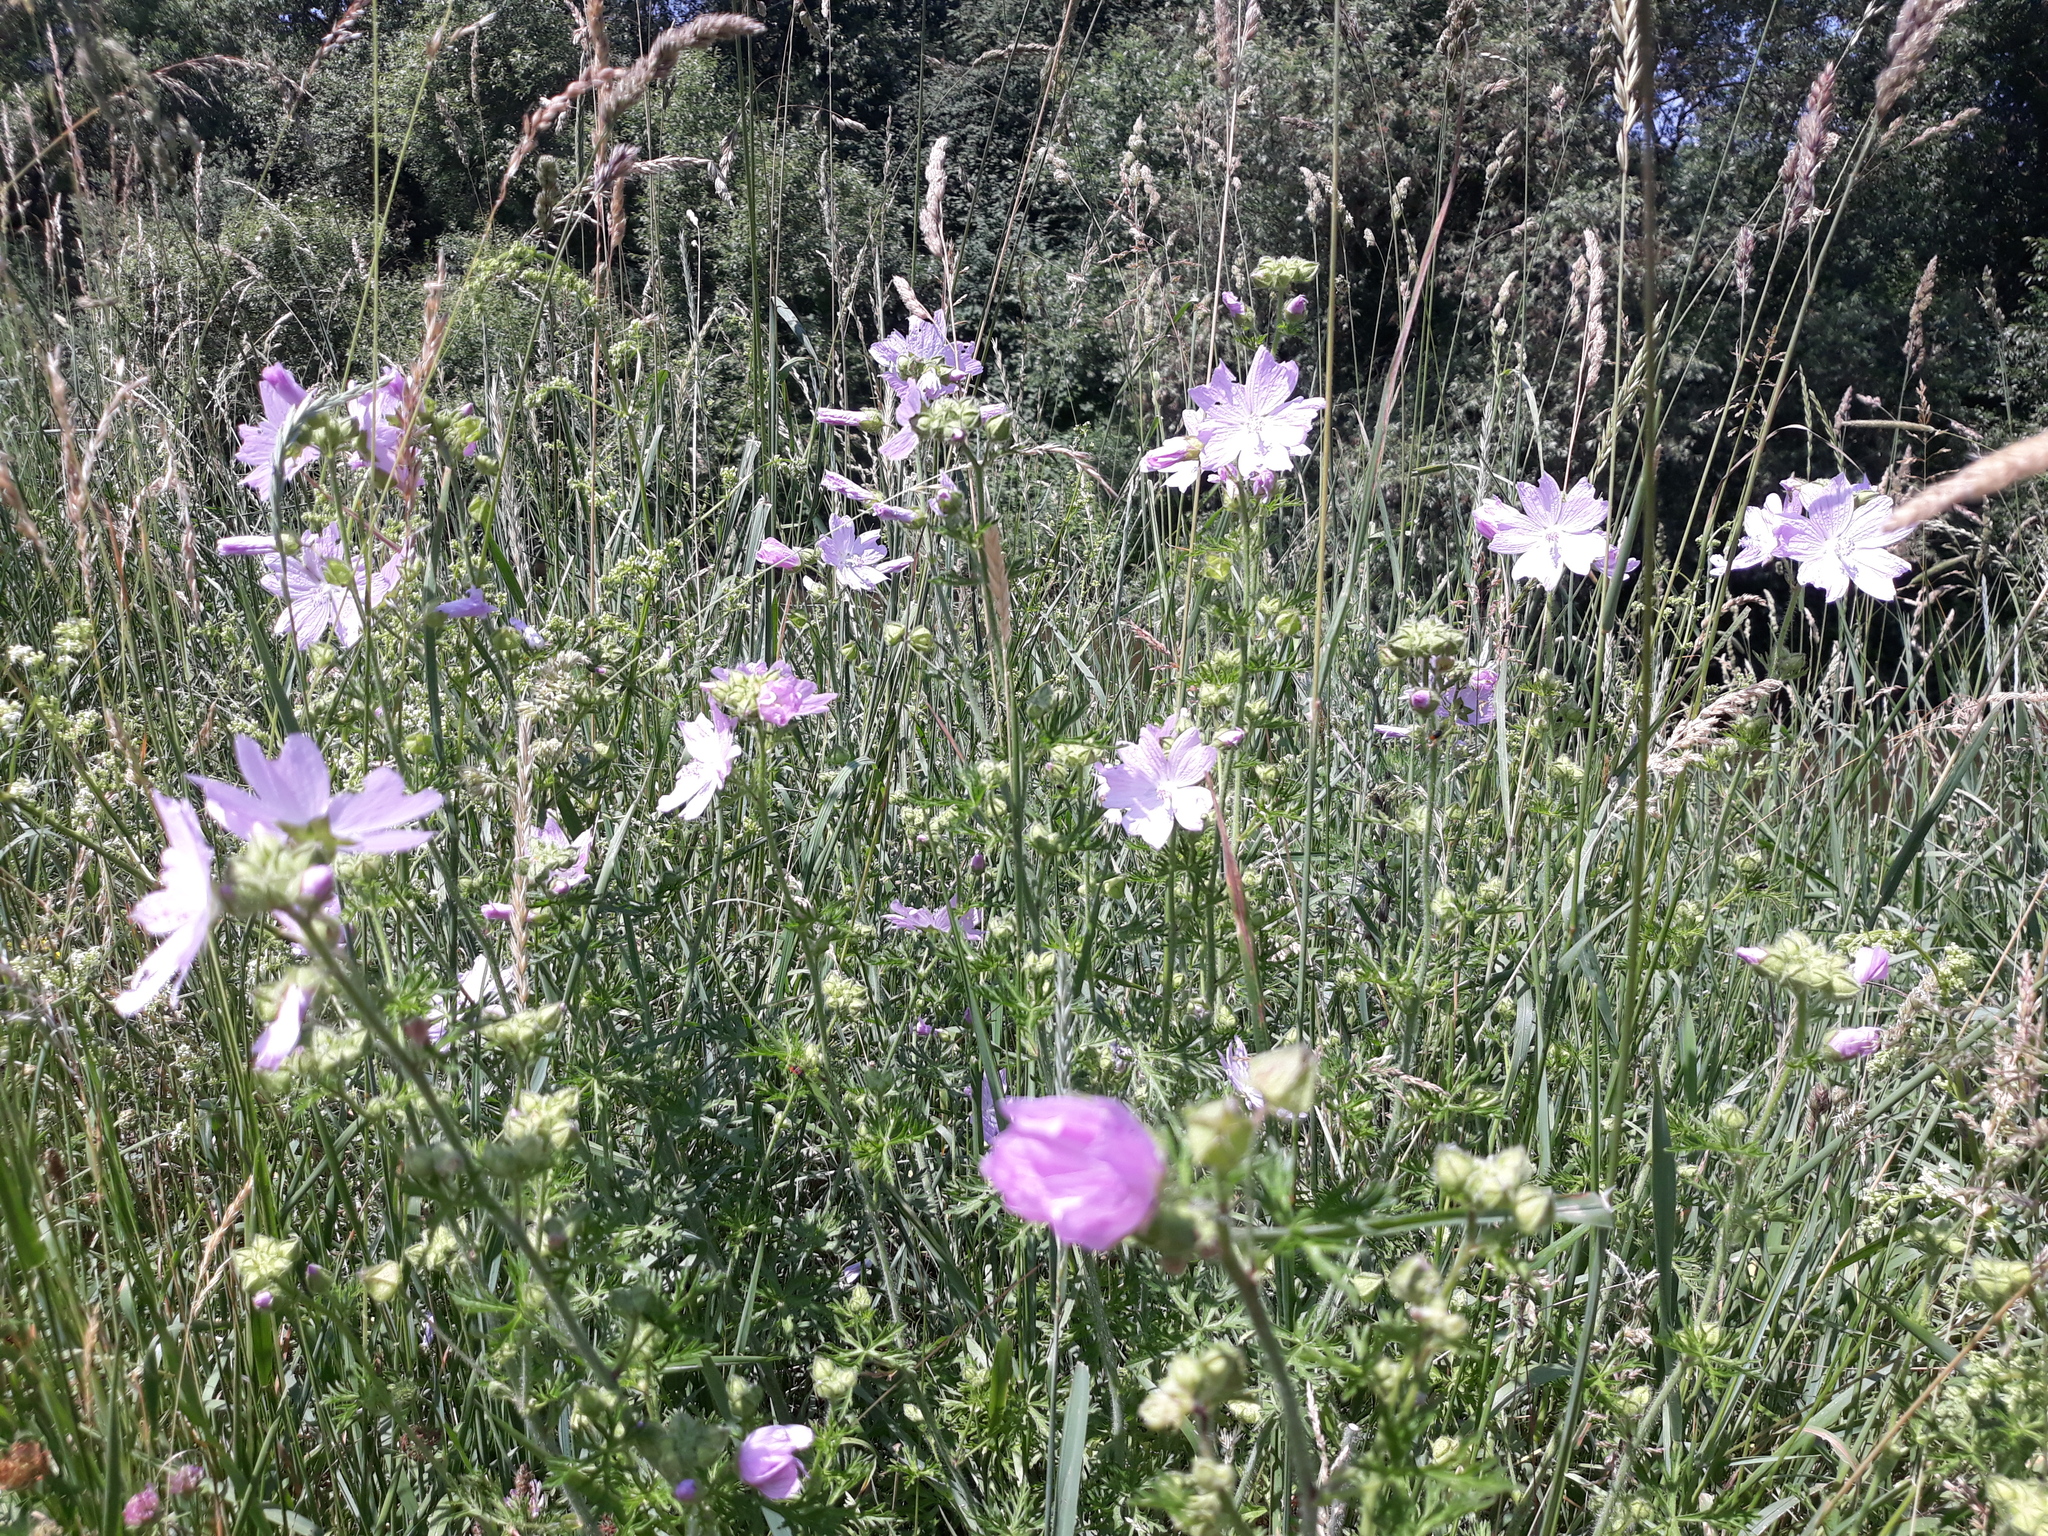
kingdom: Plantae
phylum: Tracheophyta
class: Magnoliopsida
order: Malvales
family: Malvaceae
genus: Malva
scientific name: Malva moschata
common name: Musk mallow
